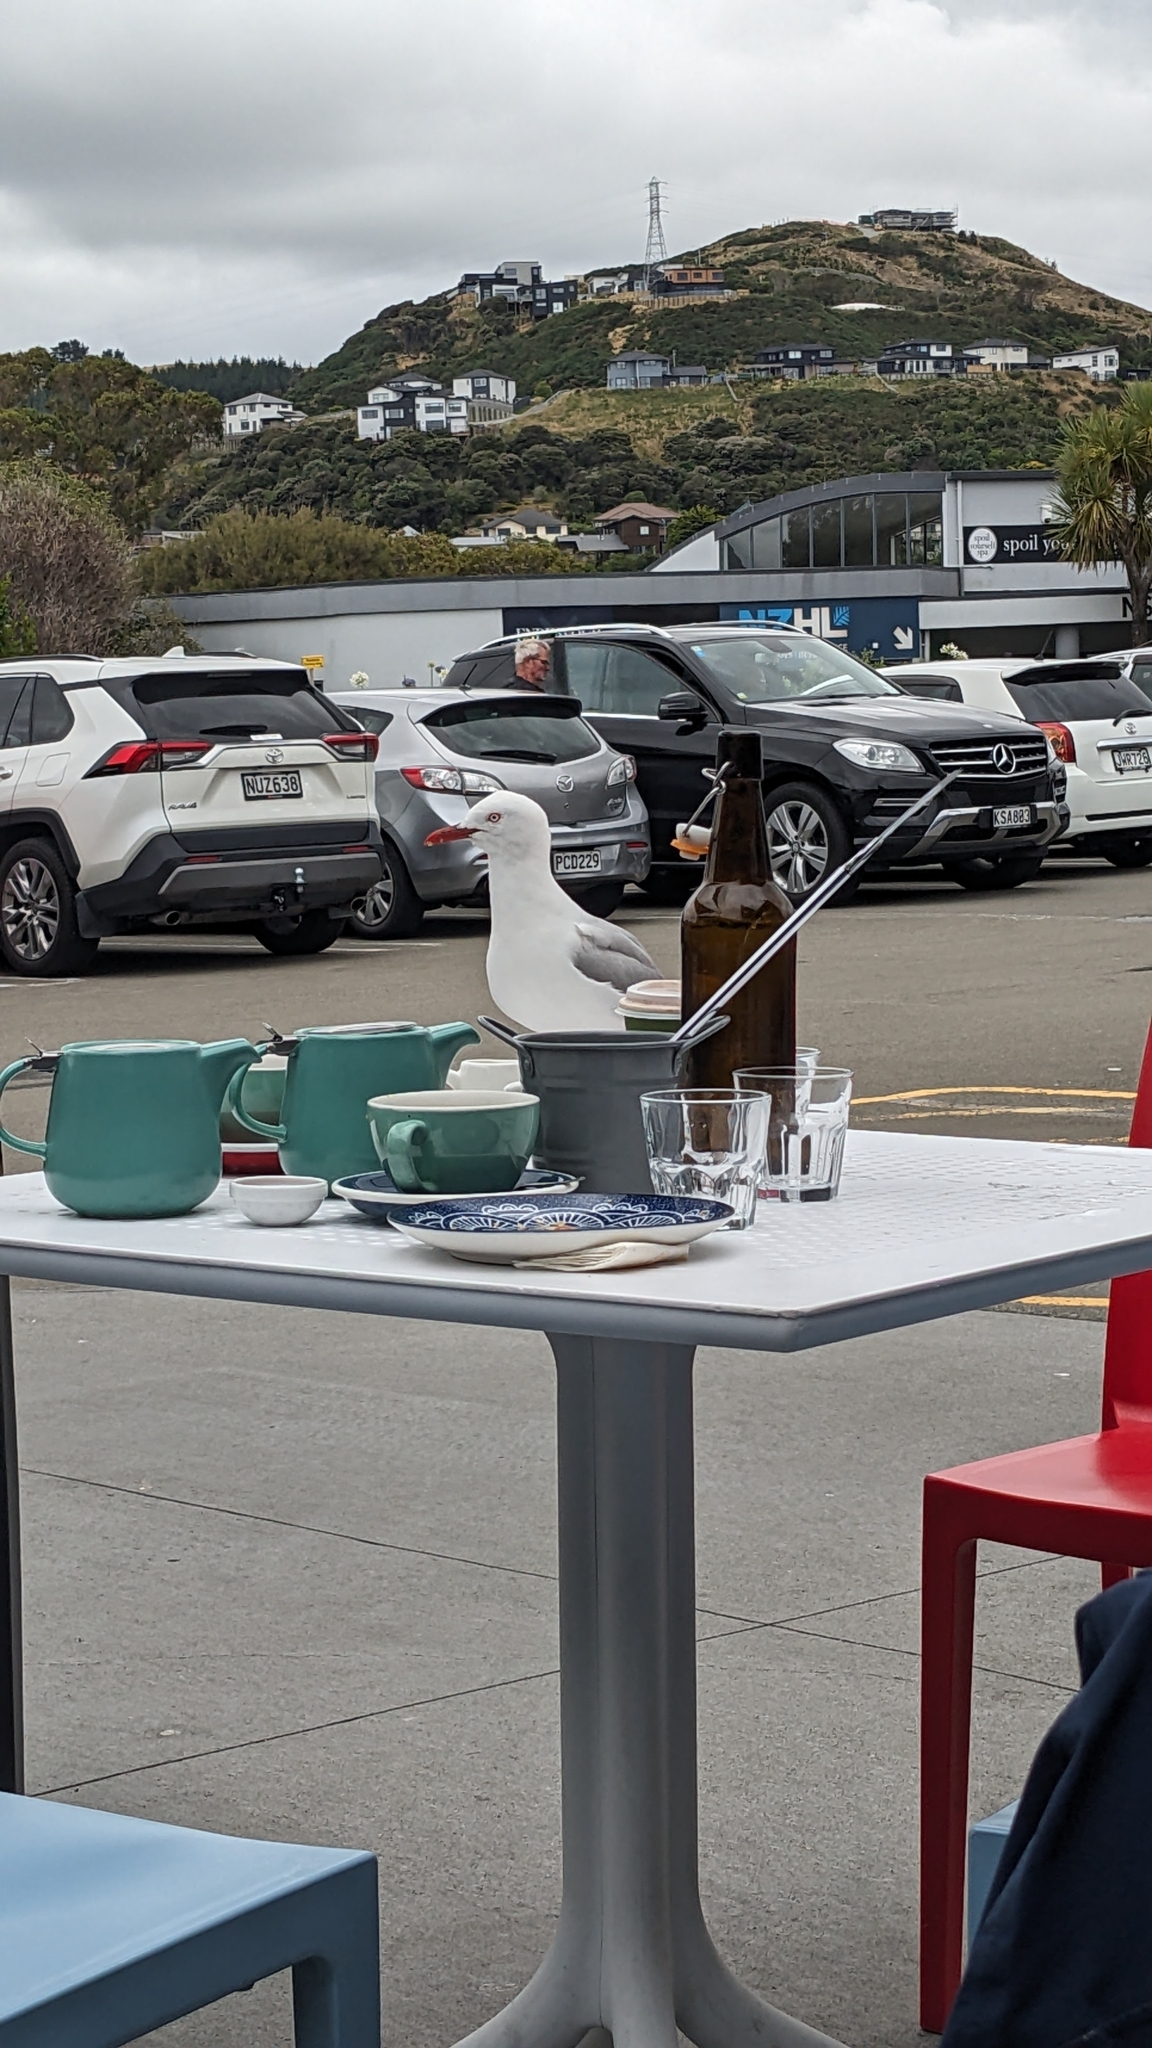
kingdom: Animalia
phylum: Chordata
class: Aves
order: Charadriiformes
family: Laridae
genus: Chroicocephalus
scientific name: Chroicocephalus novaehollandiae
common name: Silver gull
